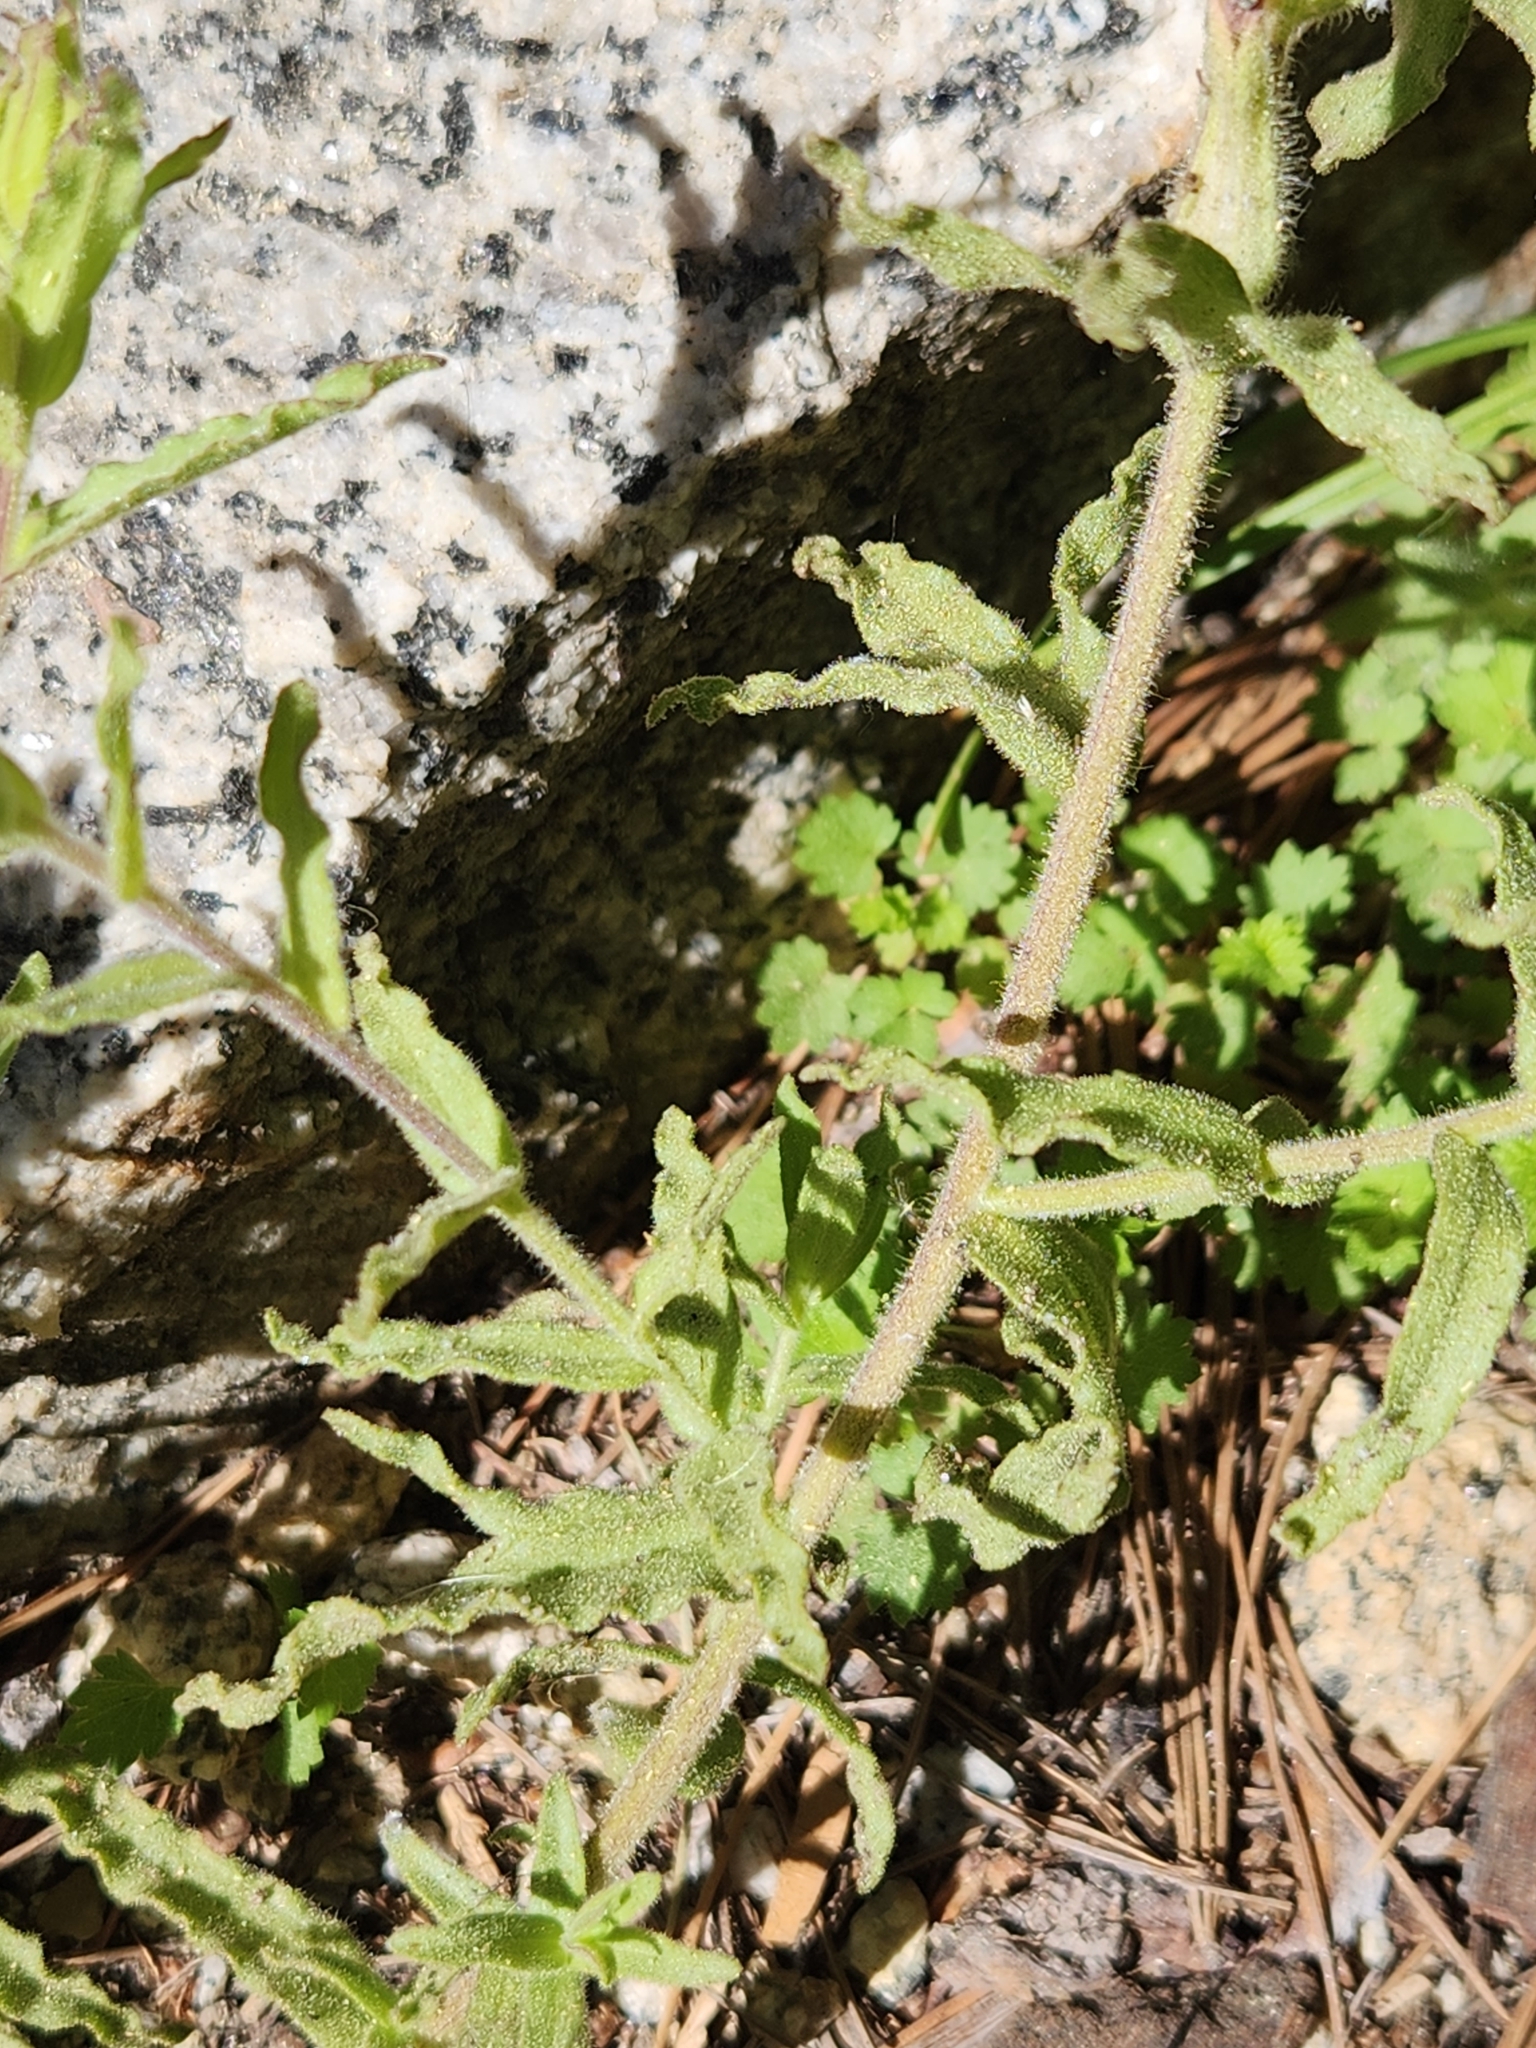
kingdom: Plantae
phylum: Tracheophyta
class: Magnoliopsida
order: Lamiales
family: Orobanchaceae
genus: Castilleja
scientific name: Castilleja martini
